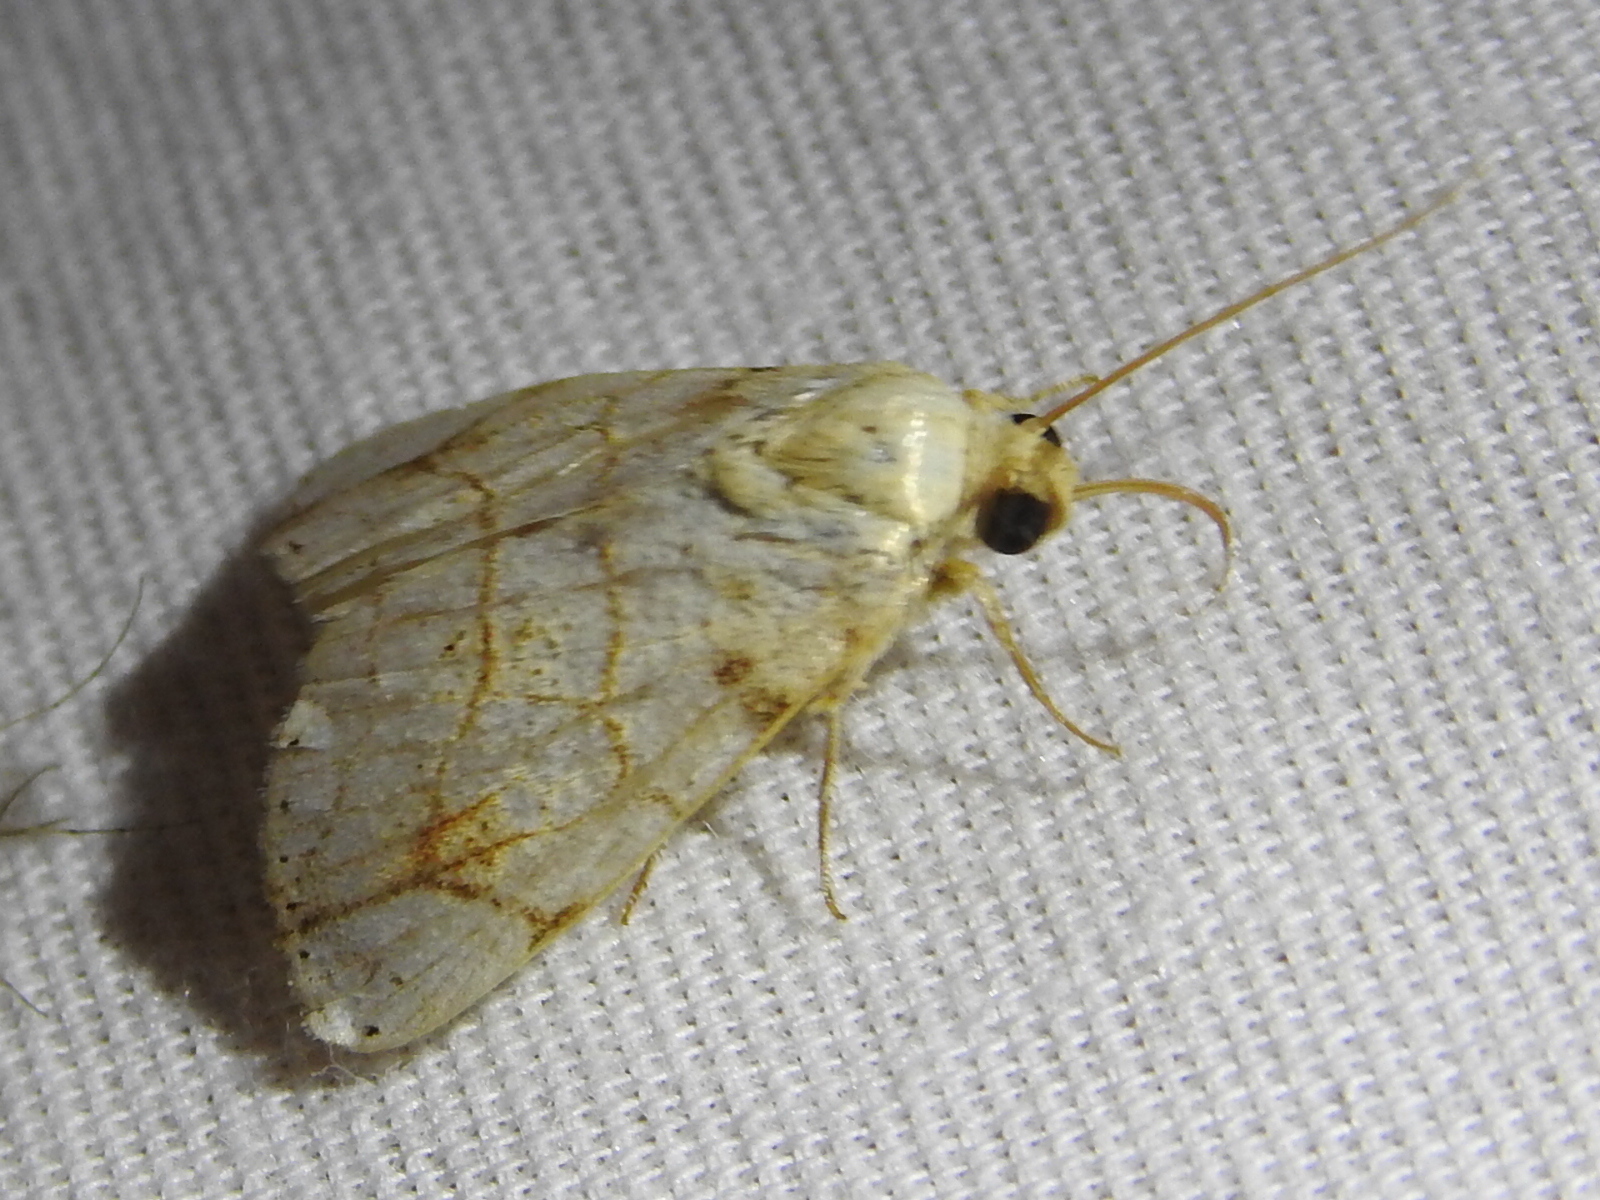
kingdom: Animalia
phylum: Arthropoda
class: Insecta
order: Lepidoptera
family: Noctuidae
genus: Bagisara
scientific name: Bagisara tristicta
